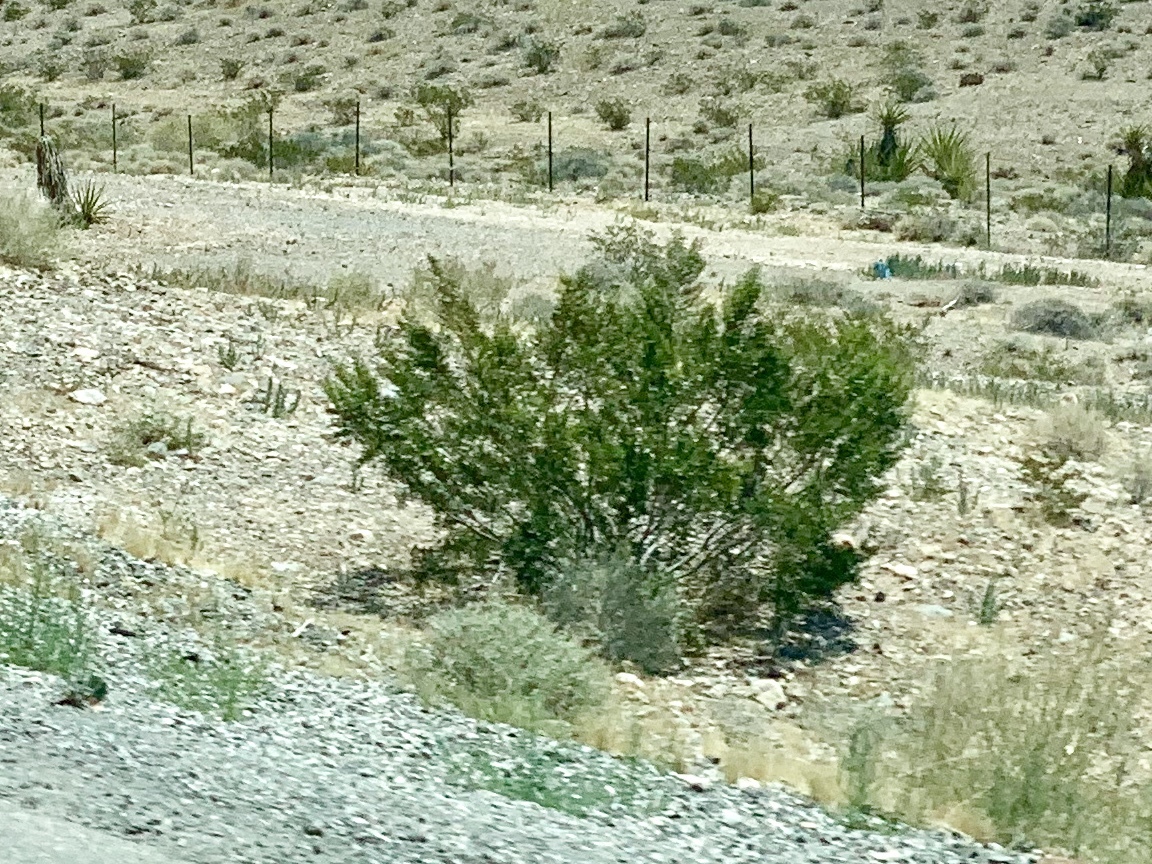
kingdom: Plantae
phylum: Tracheophyta
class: Magnoliopsida
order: Zygophyllales
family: Zygophyllaceae
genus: Larrea
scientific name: Larrea tridentata
